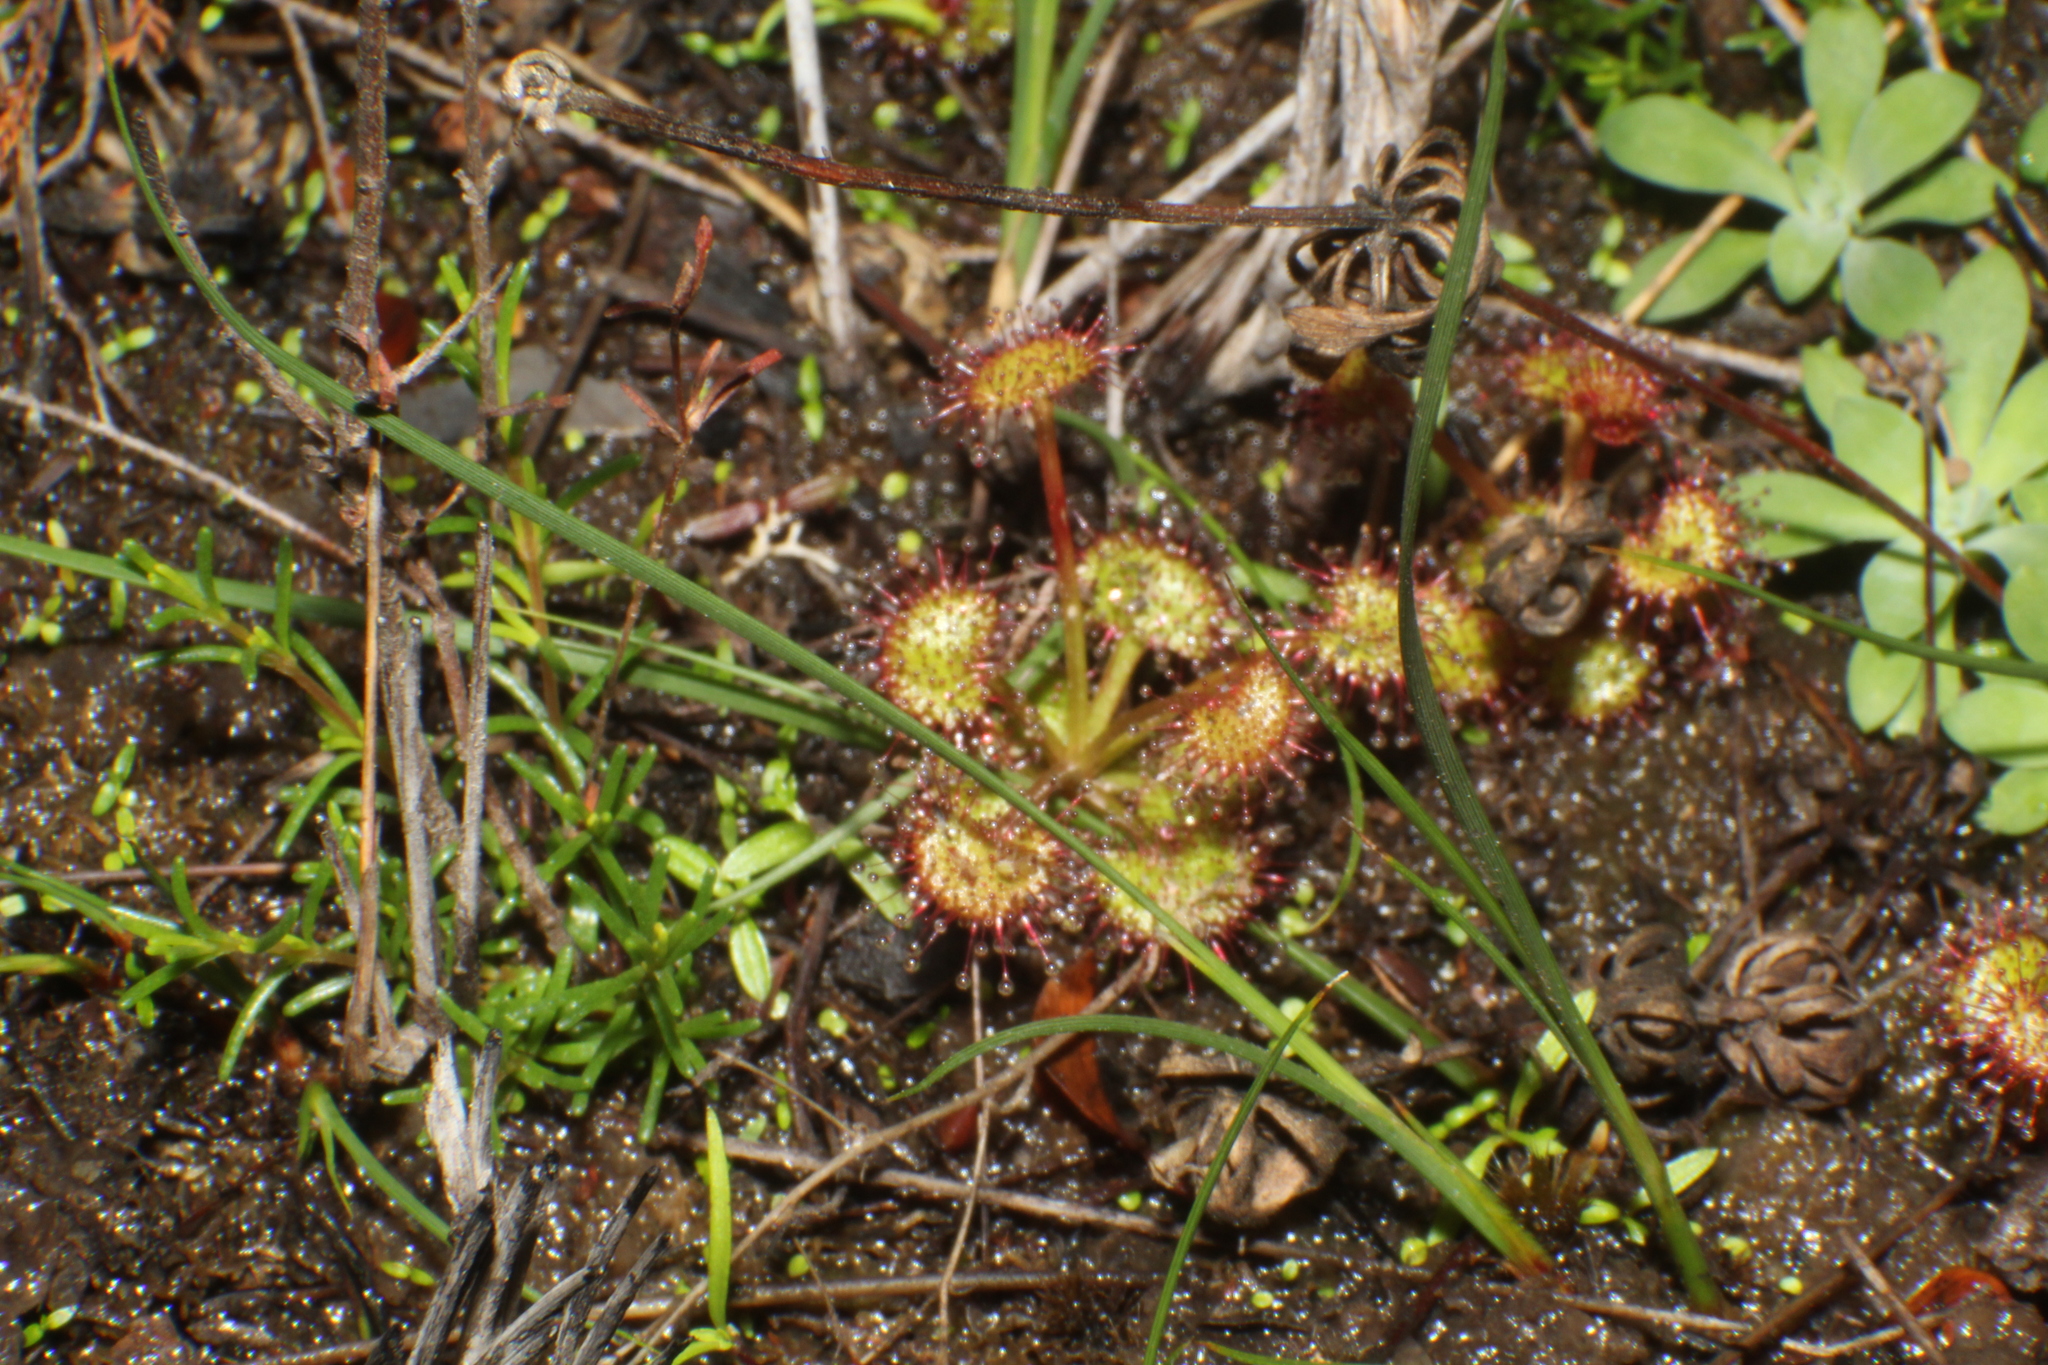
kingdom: Plantae
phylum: Tracheophyta
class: Magnoliopsida
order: Caryophyllales
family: Droseraceae
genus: Drosera
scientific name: Drosera monticola
